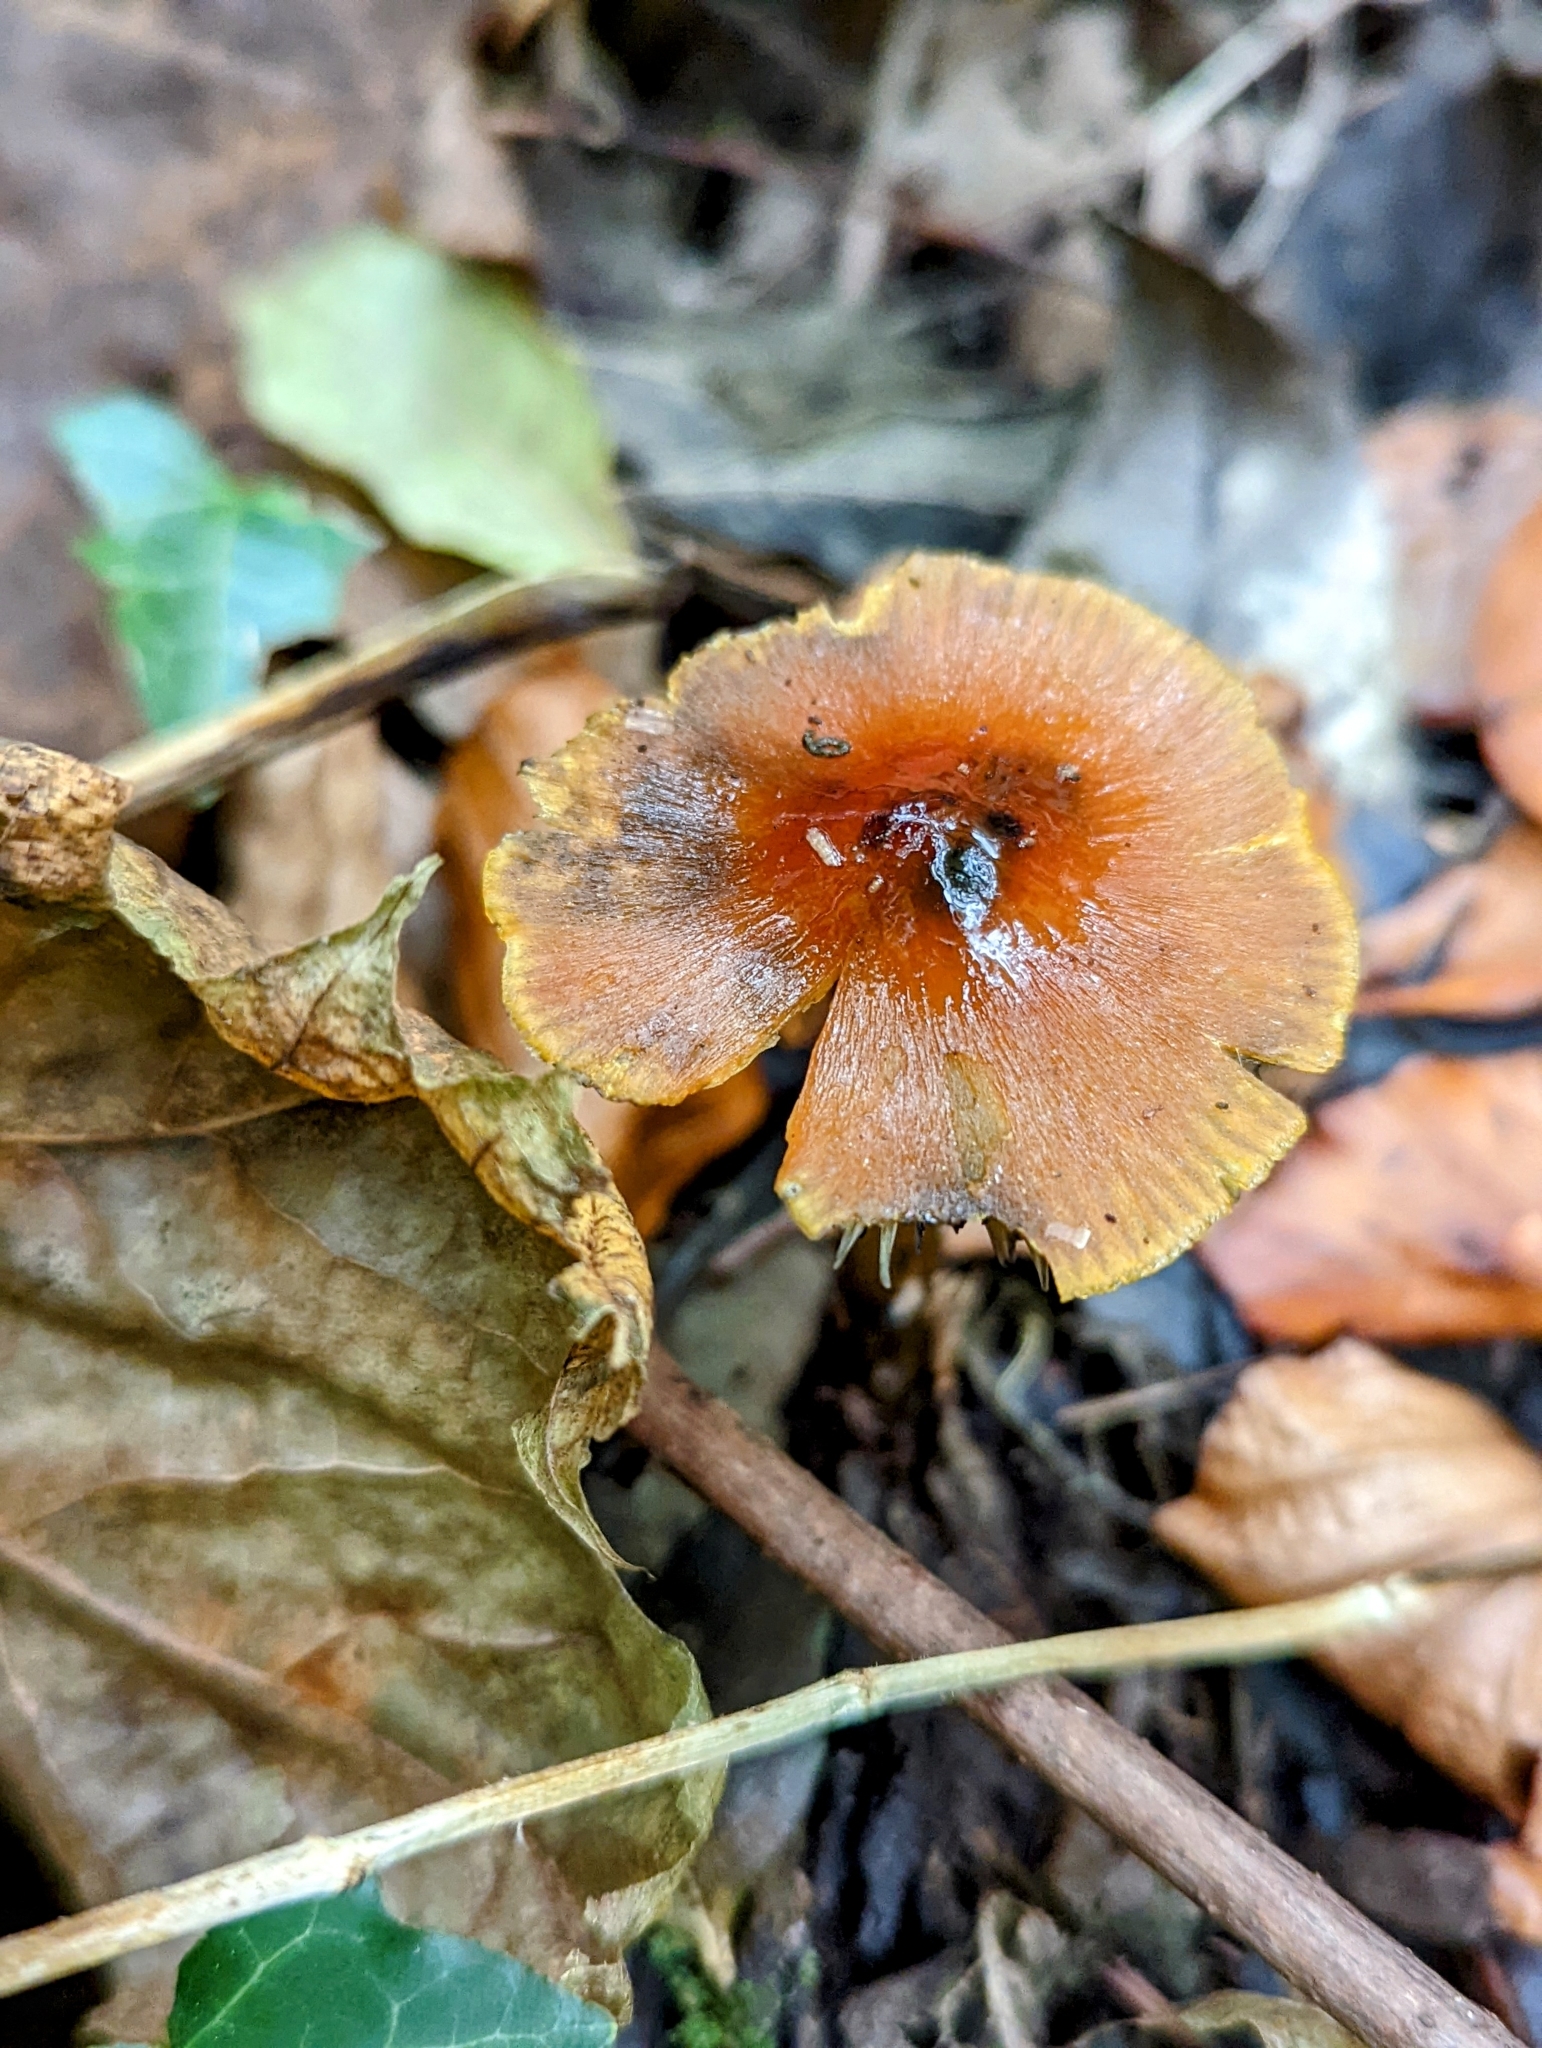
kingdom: Fungi
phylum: Basidiomycota
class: Agaricomycetes
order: Agaricales
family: Hygrophoraceae
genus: Hygrocybe
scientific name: Hygrocybe conica
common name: Blackening wax-cap
